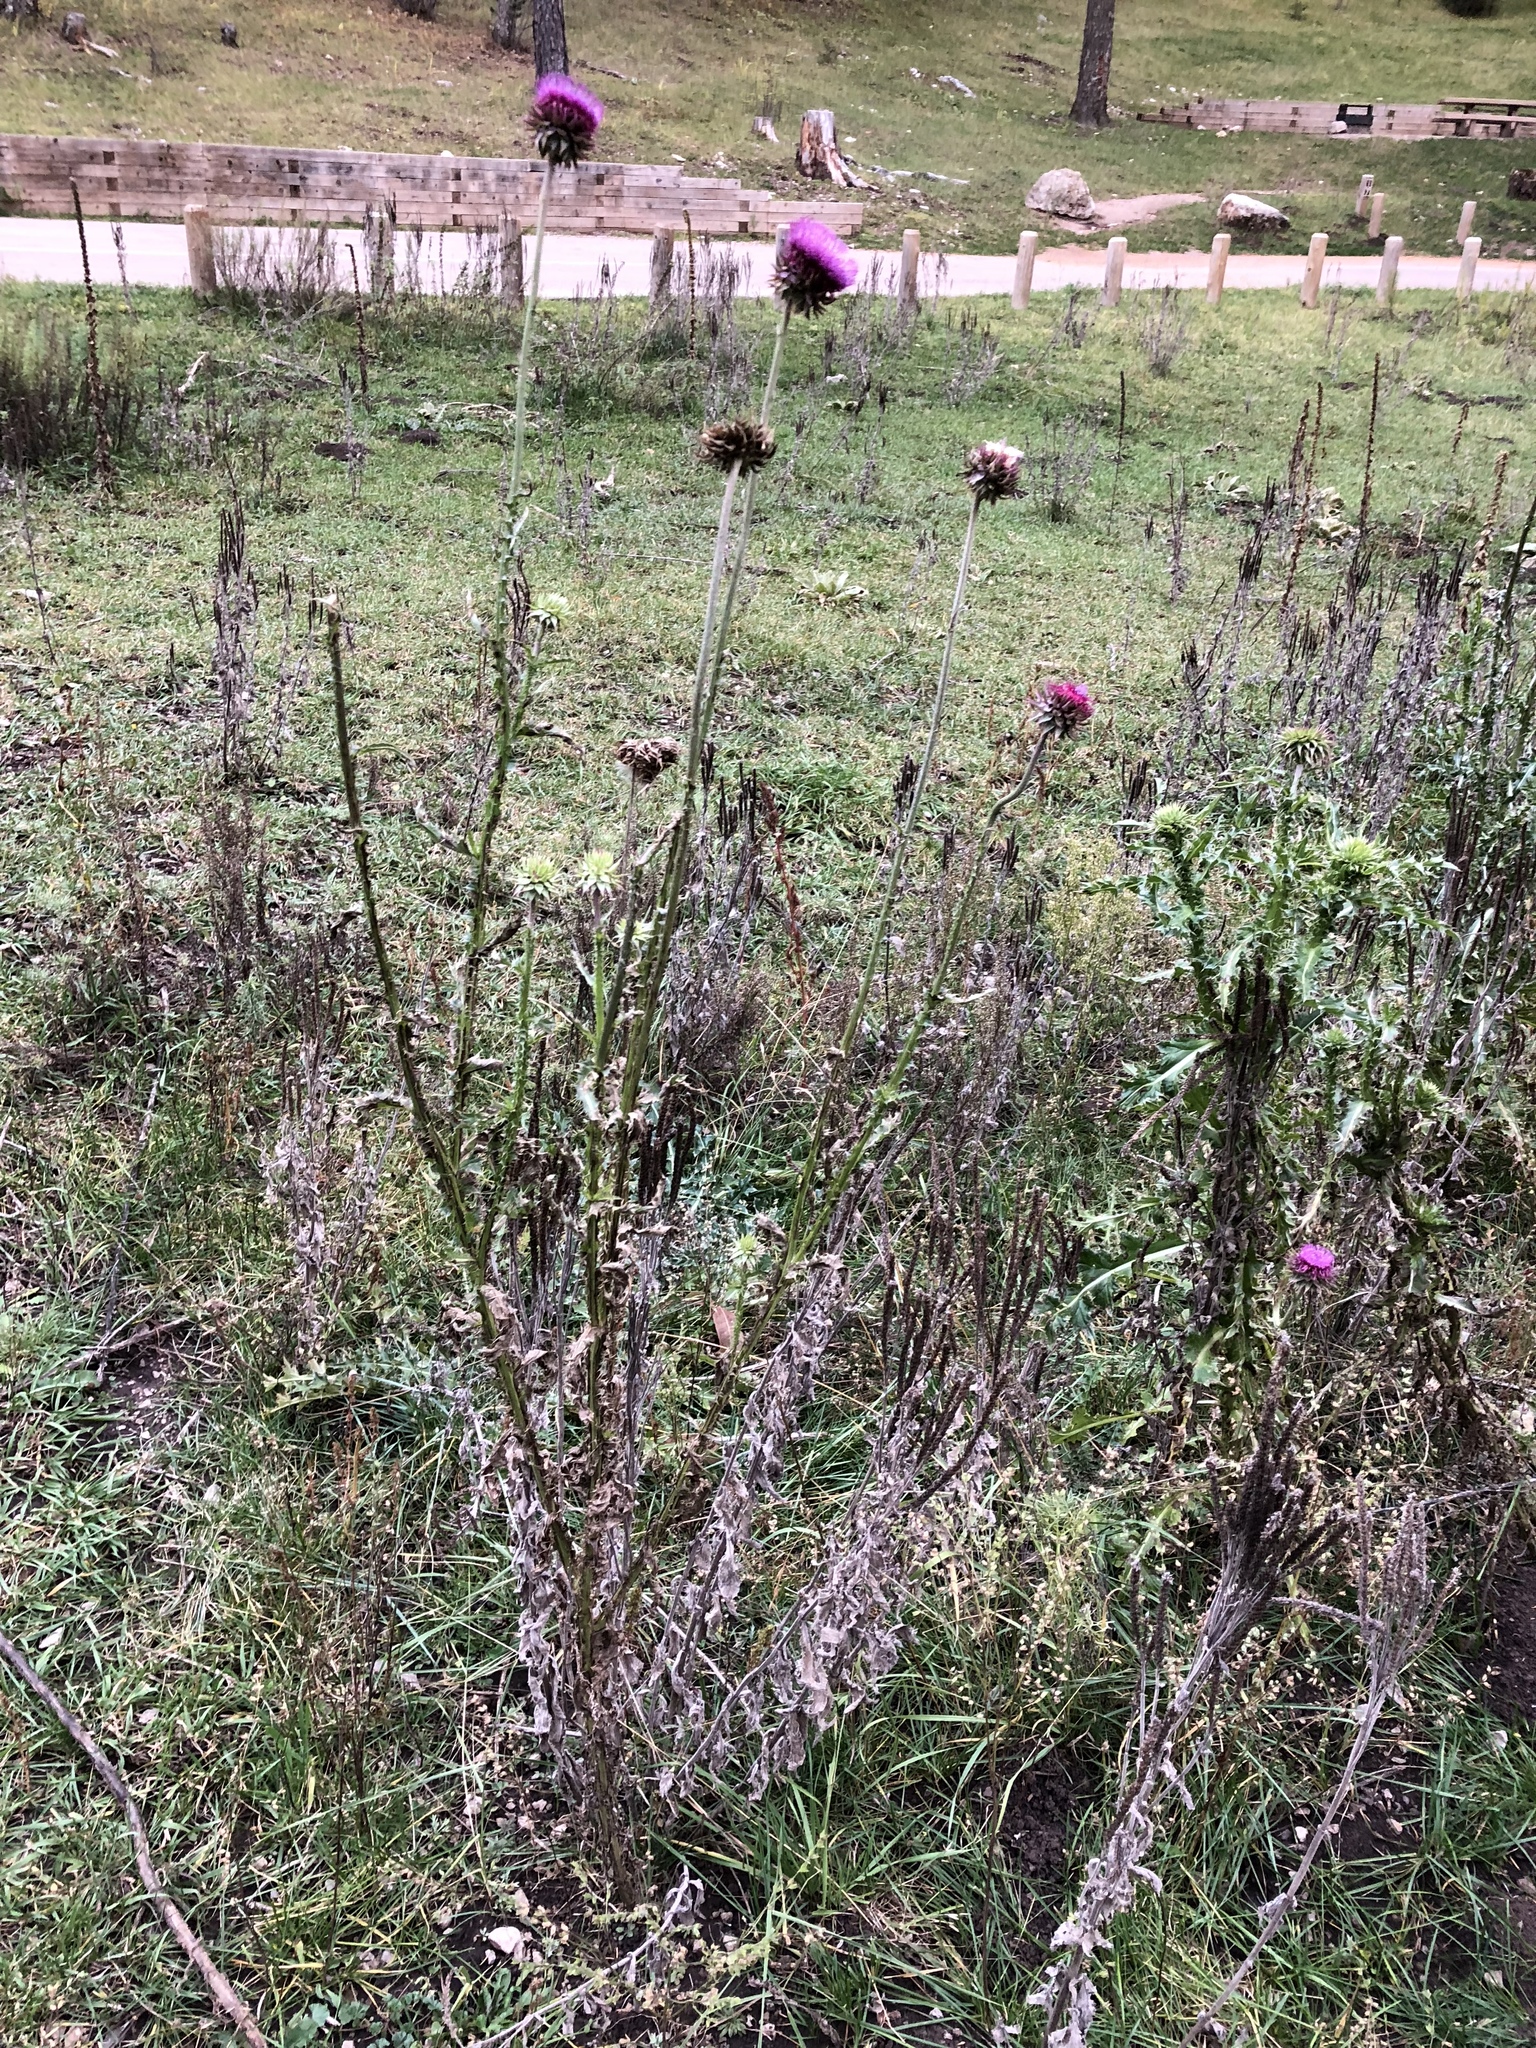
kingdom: Plantae
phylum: Tracheophyta
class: Magnoliopsida
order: Asterales
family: Asteraceae
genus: Carduus
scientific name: Carduus nutans
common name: Musk thistle
